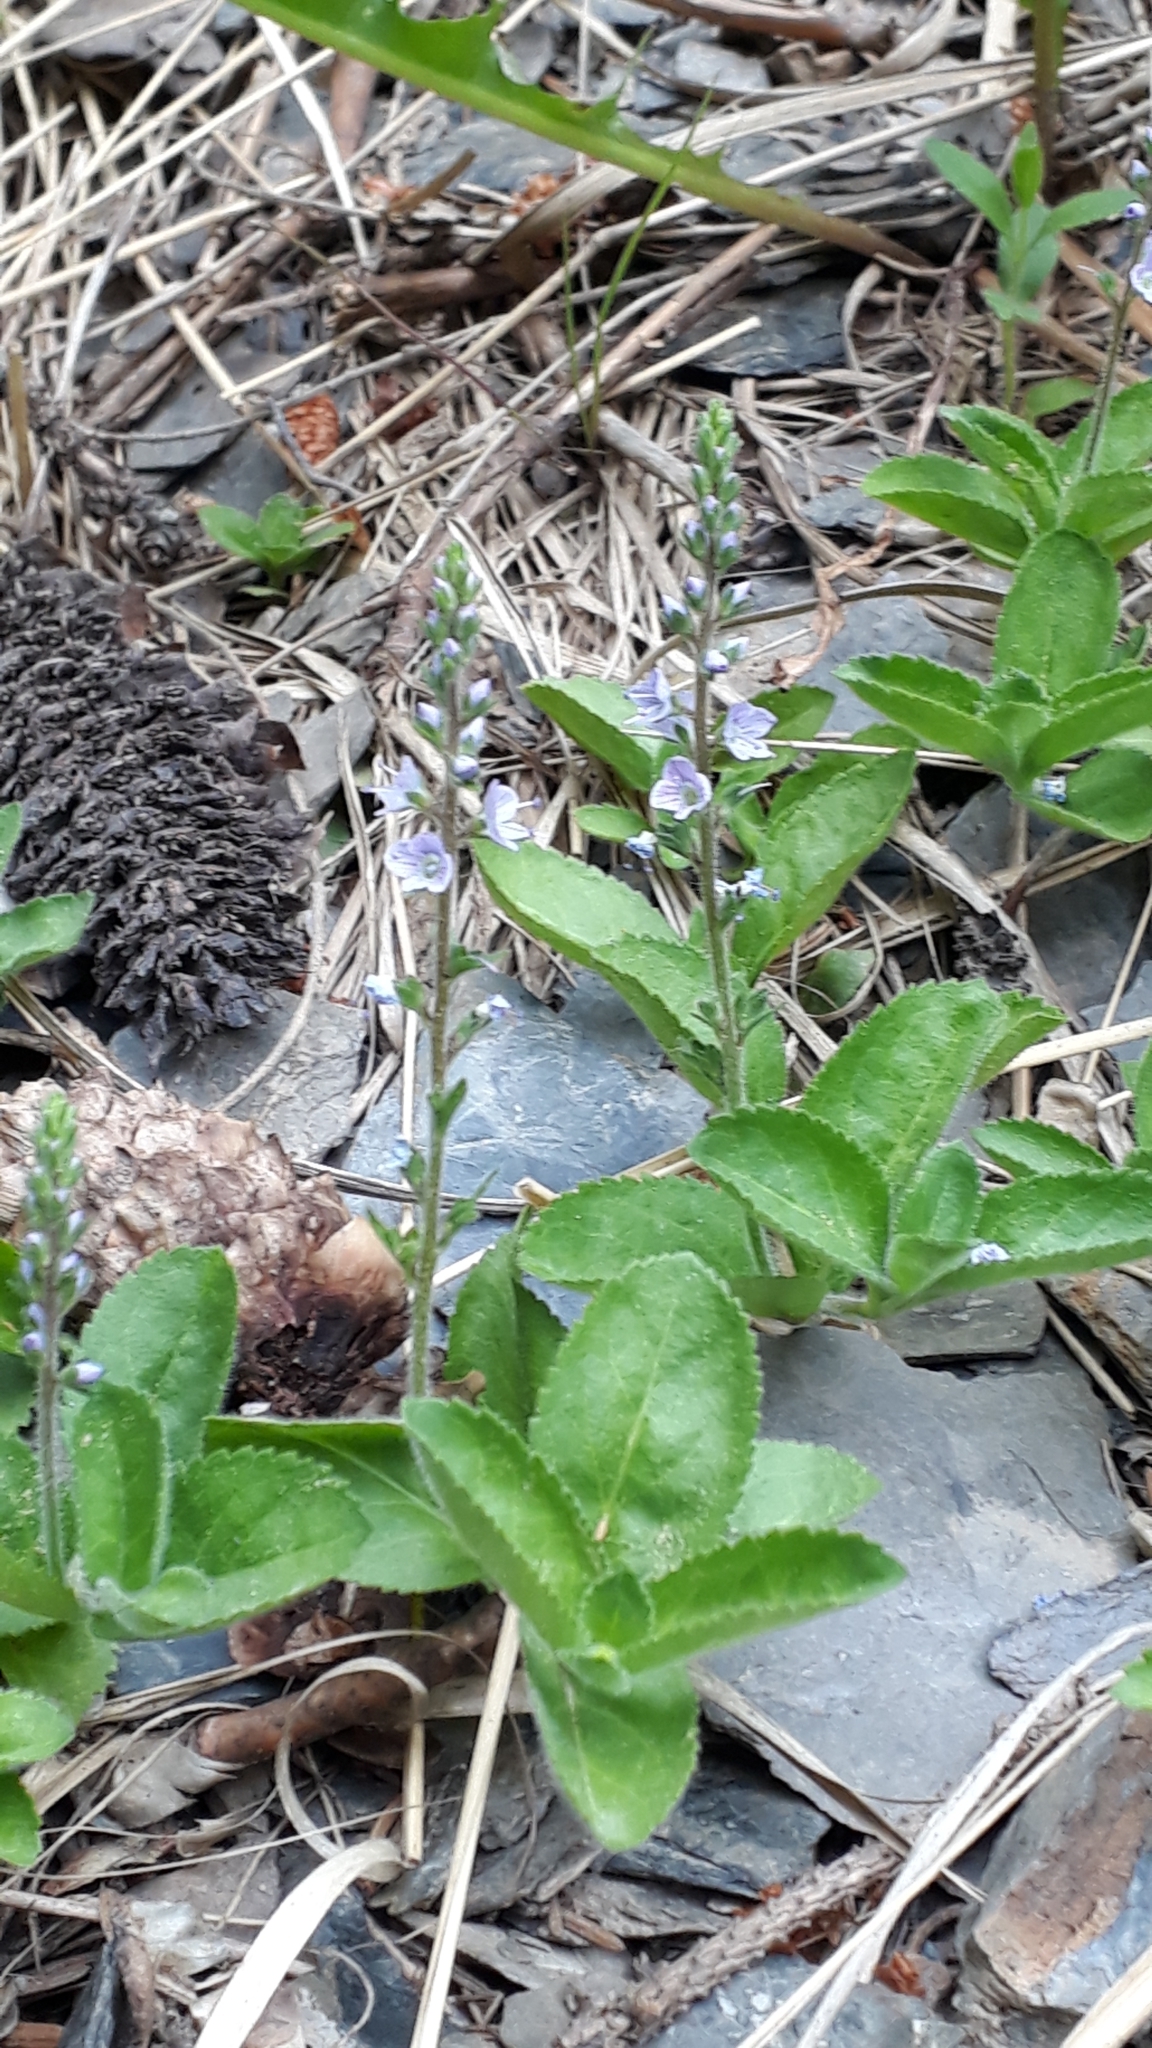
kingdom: Plantae
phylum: Tracheophyta
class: Magnoliopsida
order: Lamiales
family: Plantaginaceae
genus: Veronica
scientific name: Veronica officinalis
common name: Common speedwell
